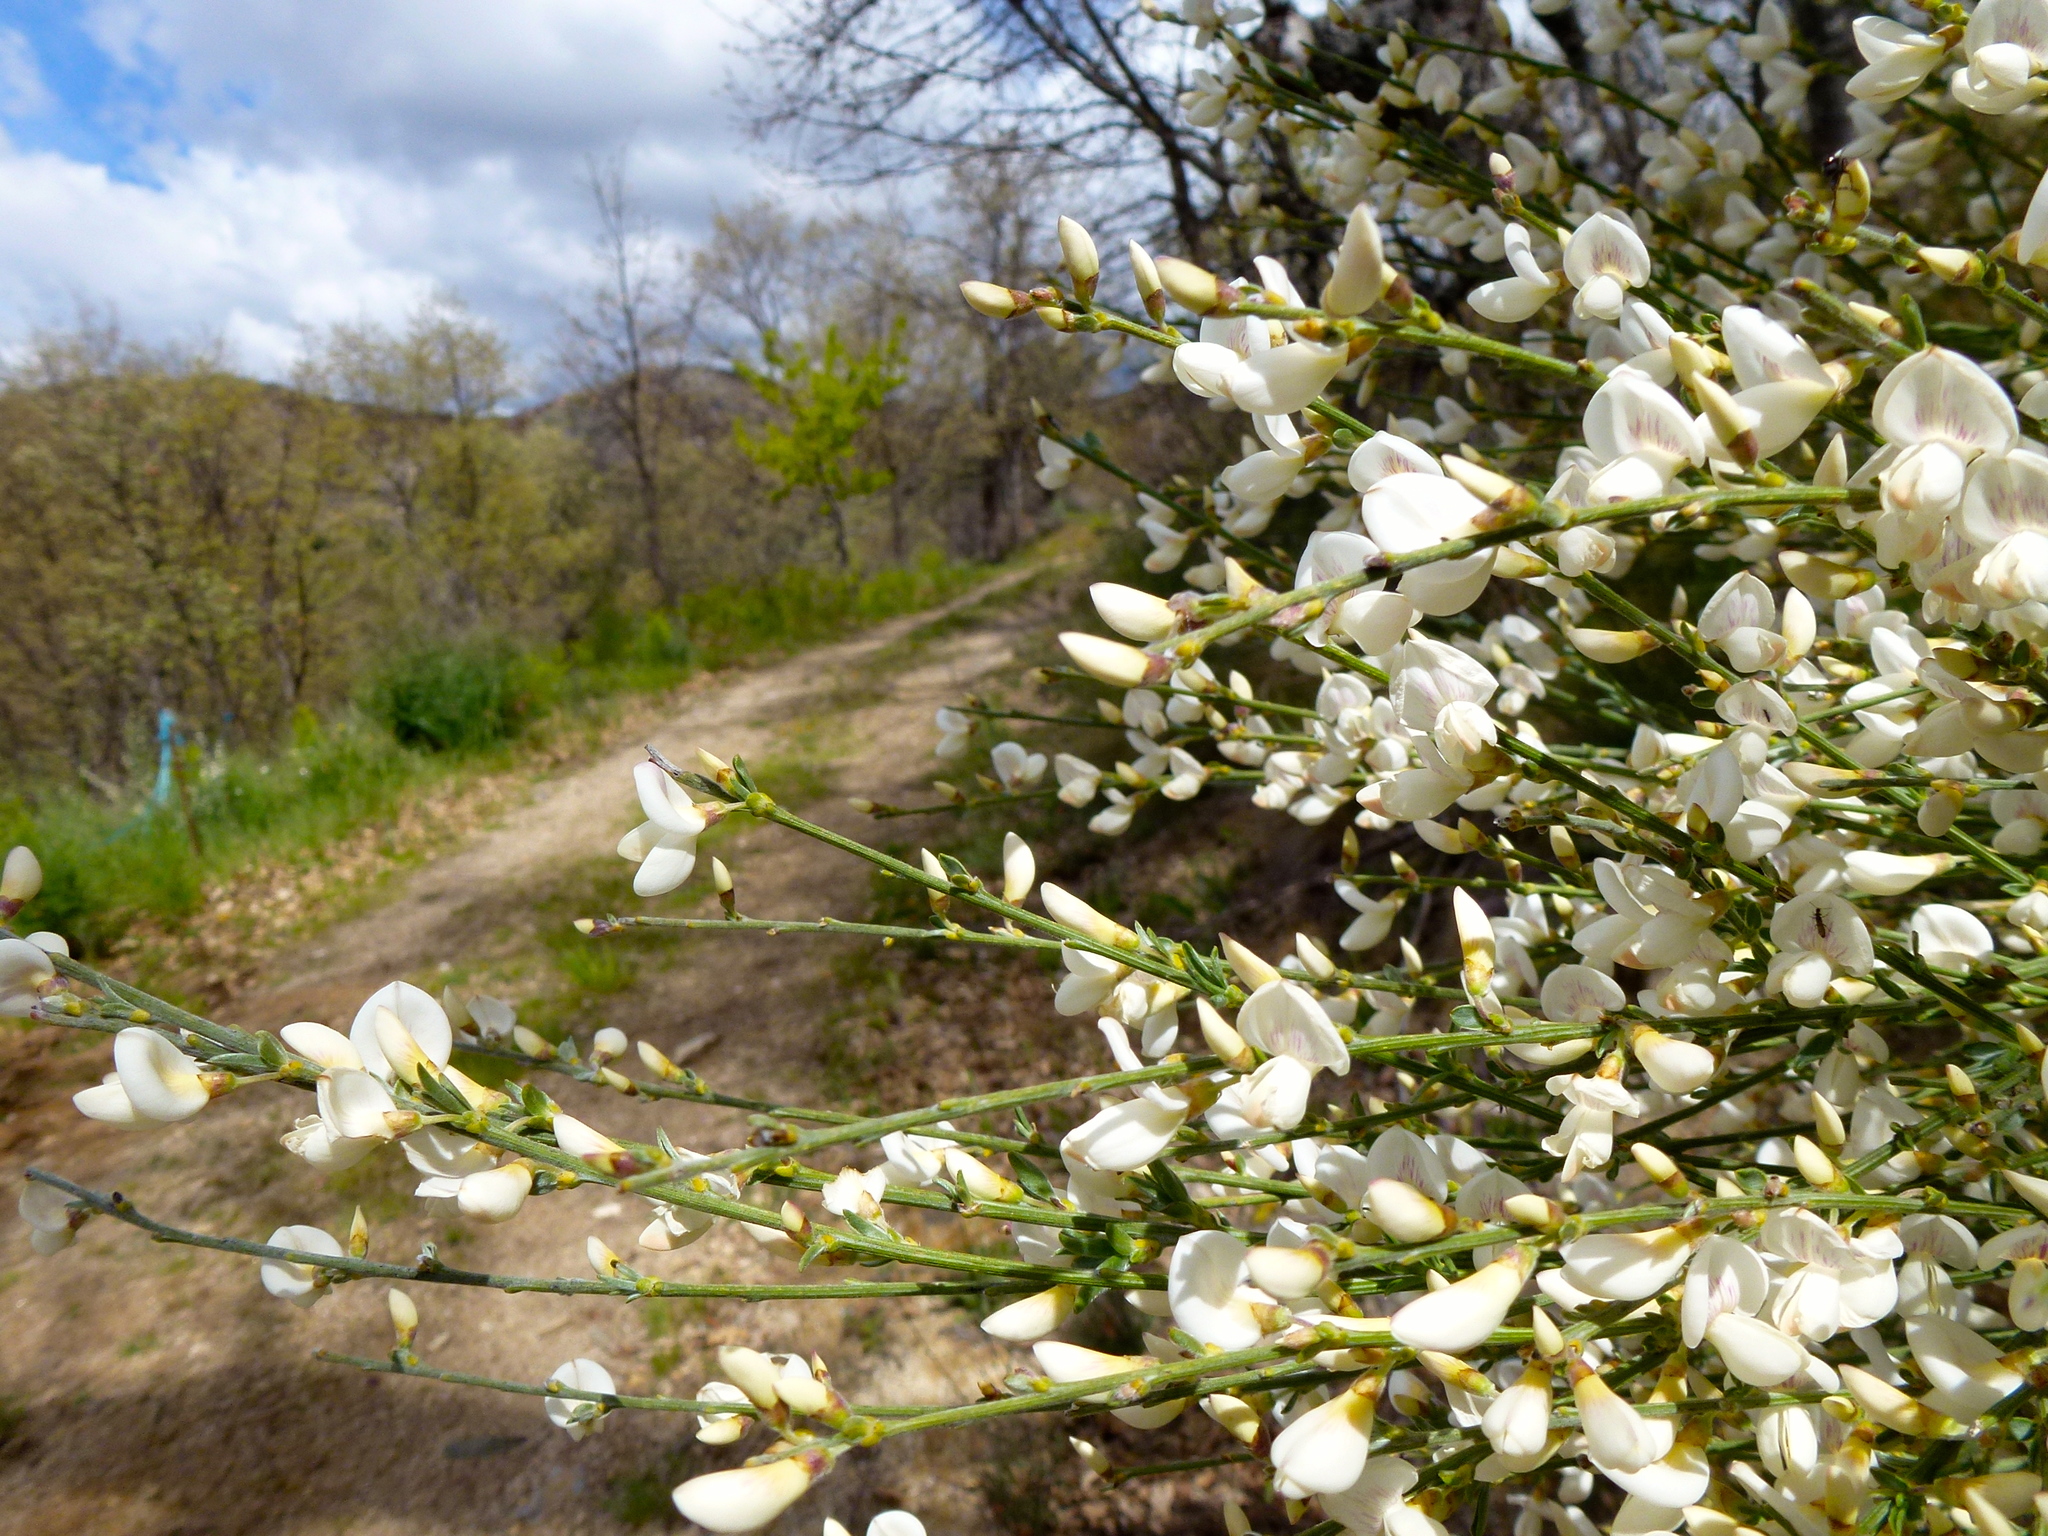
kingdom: Plantae
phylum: Tracheophyta
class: Magnoliopsida
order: Fabales
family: Fabaceae
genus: Cytisus
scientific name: Cytisus multiflorus
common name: White broom
